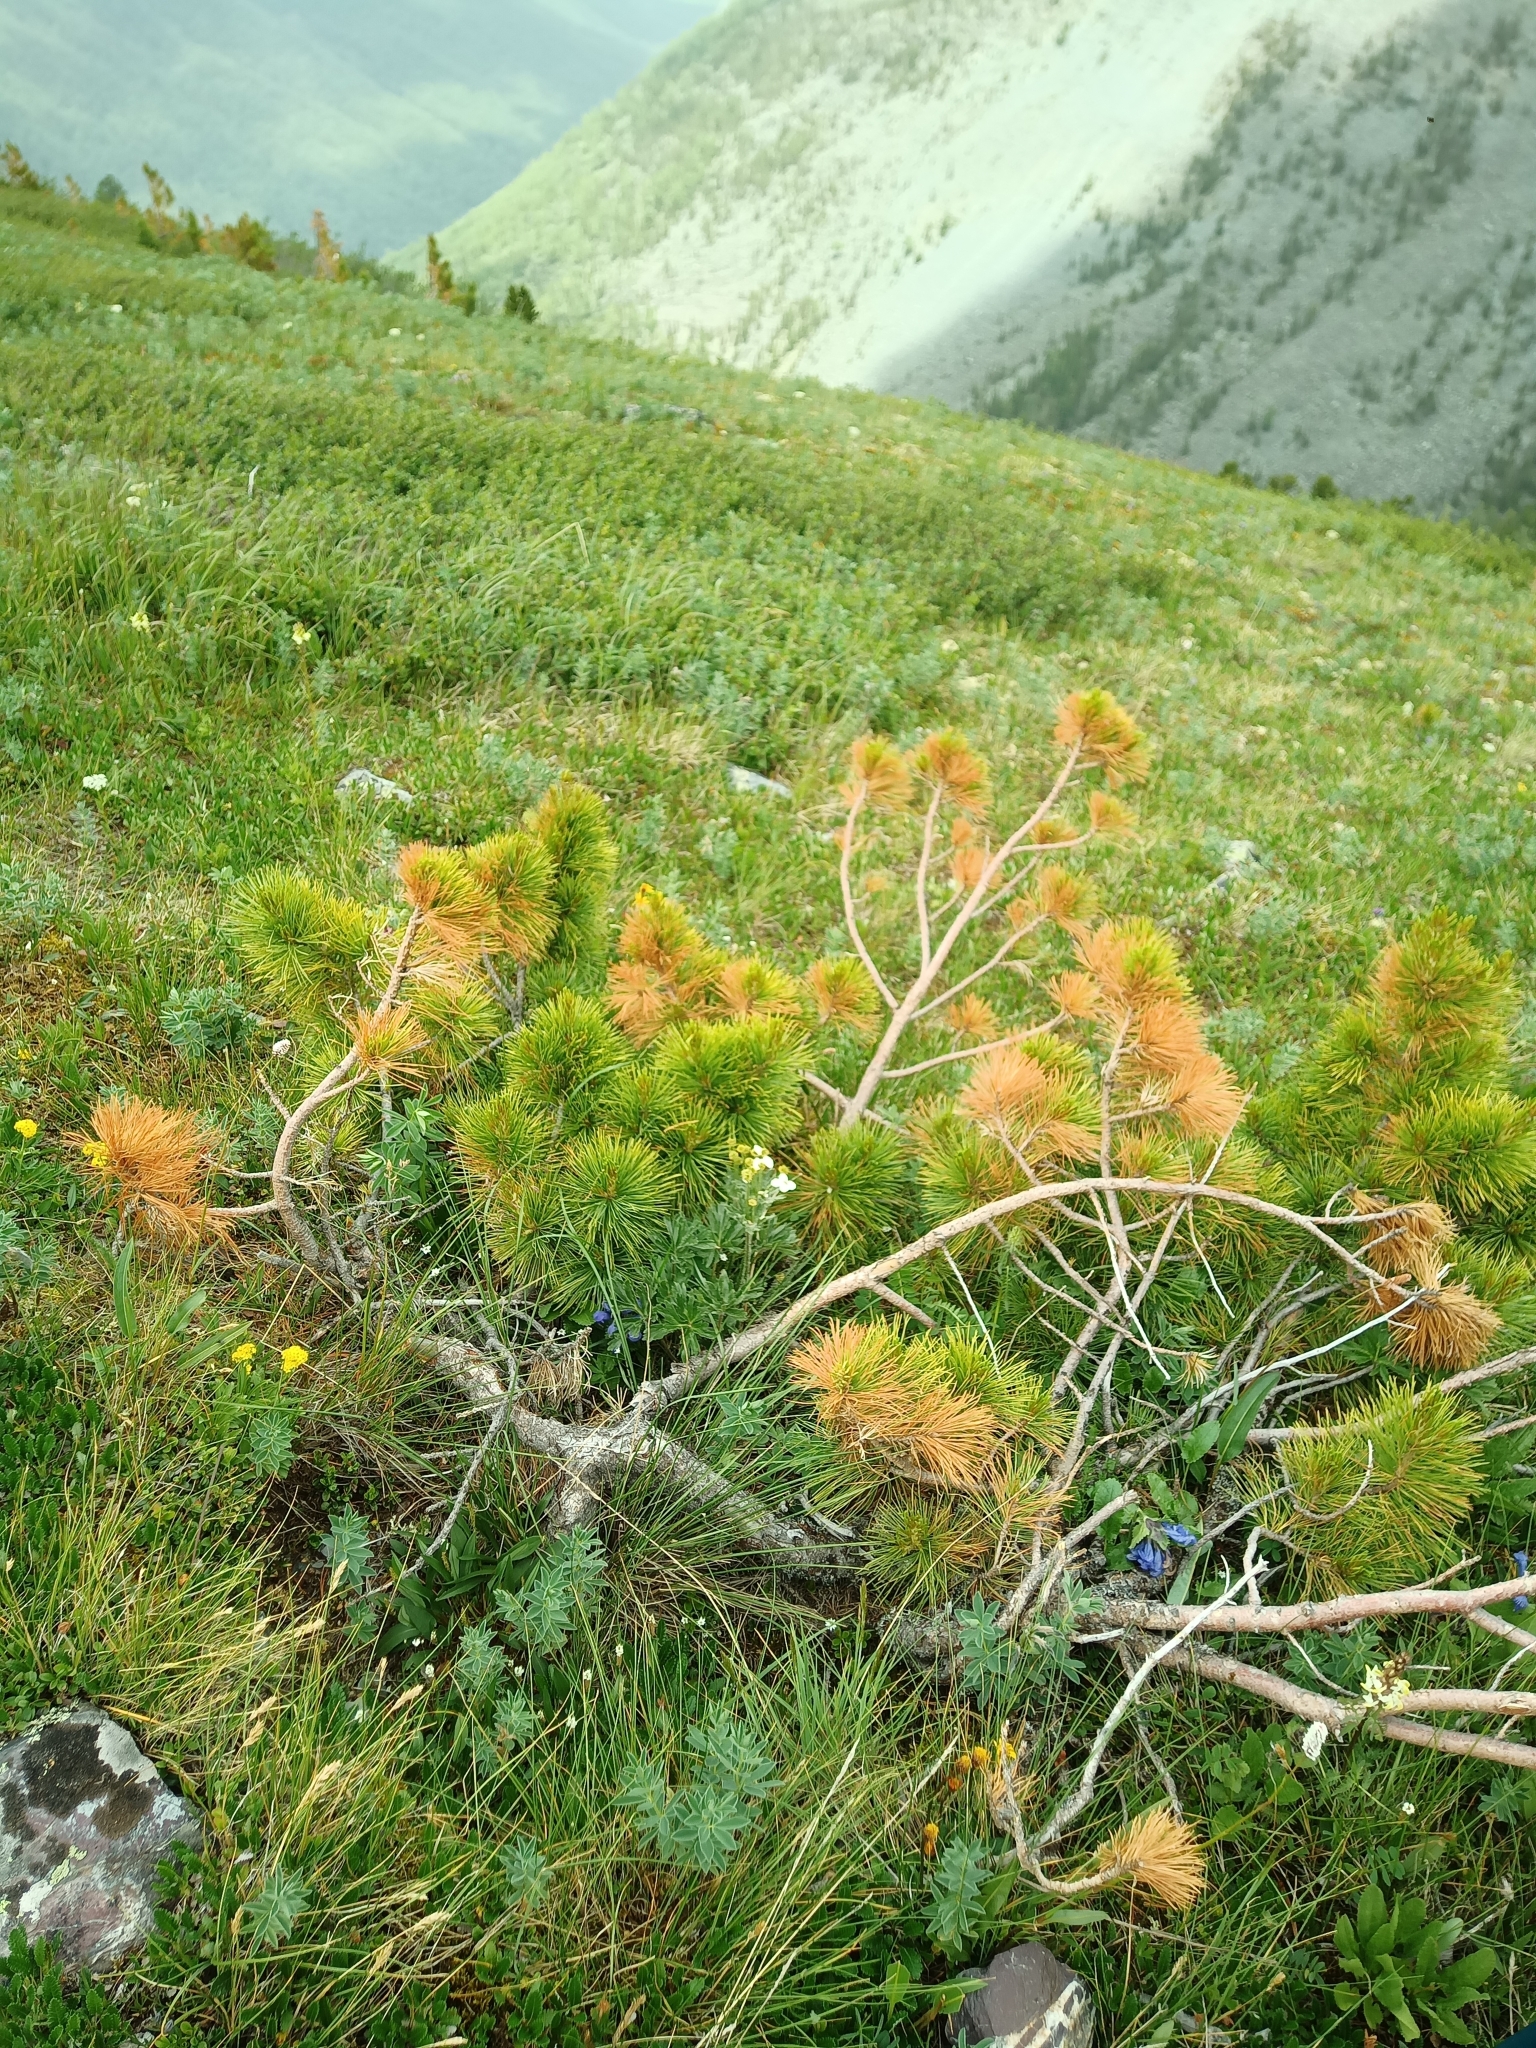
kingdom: Plantae
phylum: Tracheophyta
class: Pinopsida
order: Pinales
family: Pinaceae
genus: Pinus
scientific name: Pinus sibirica
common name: Siberian pine
